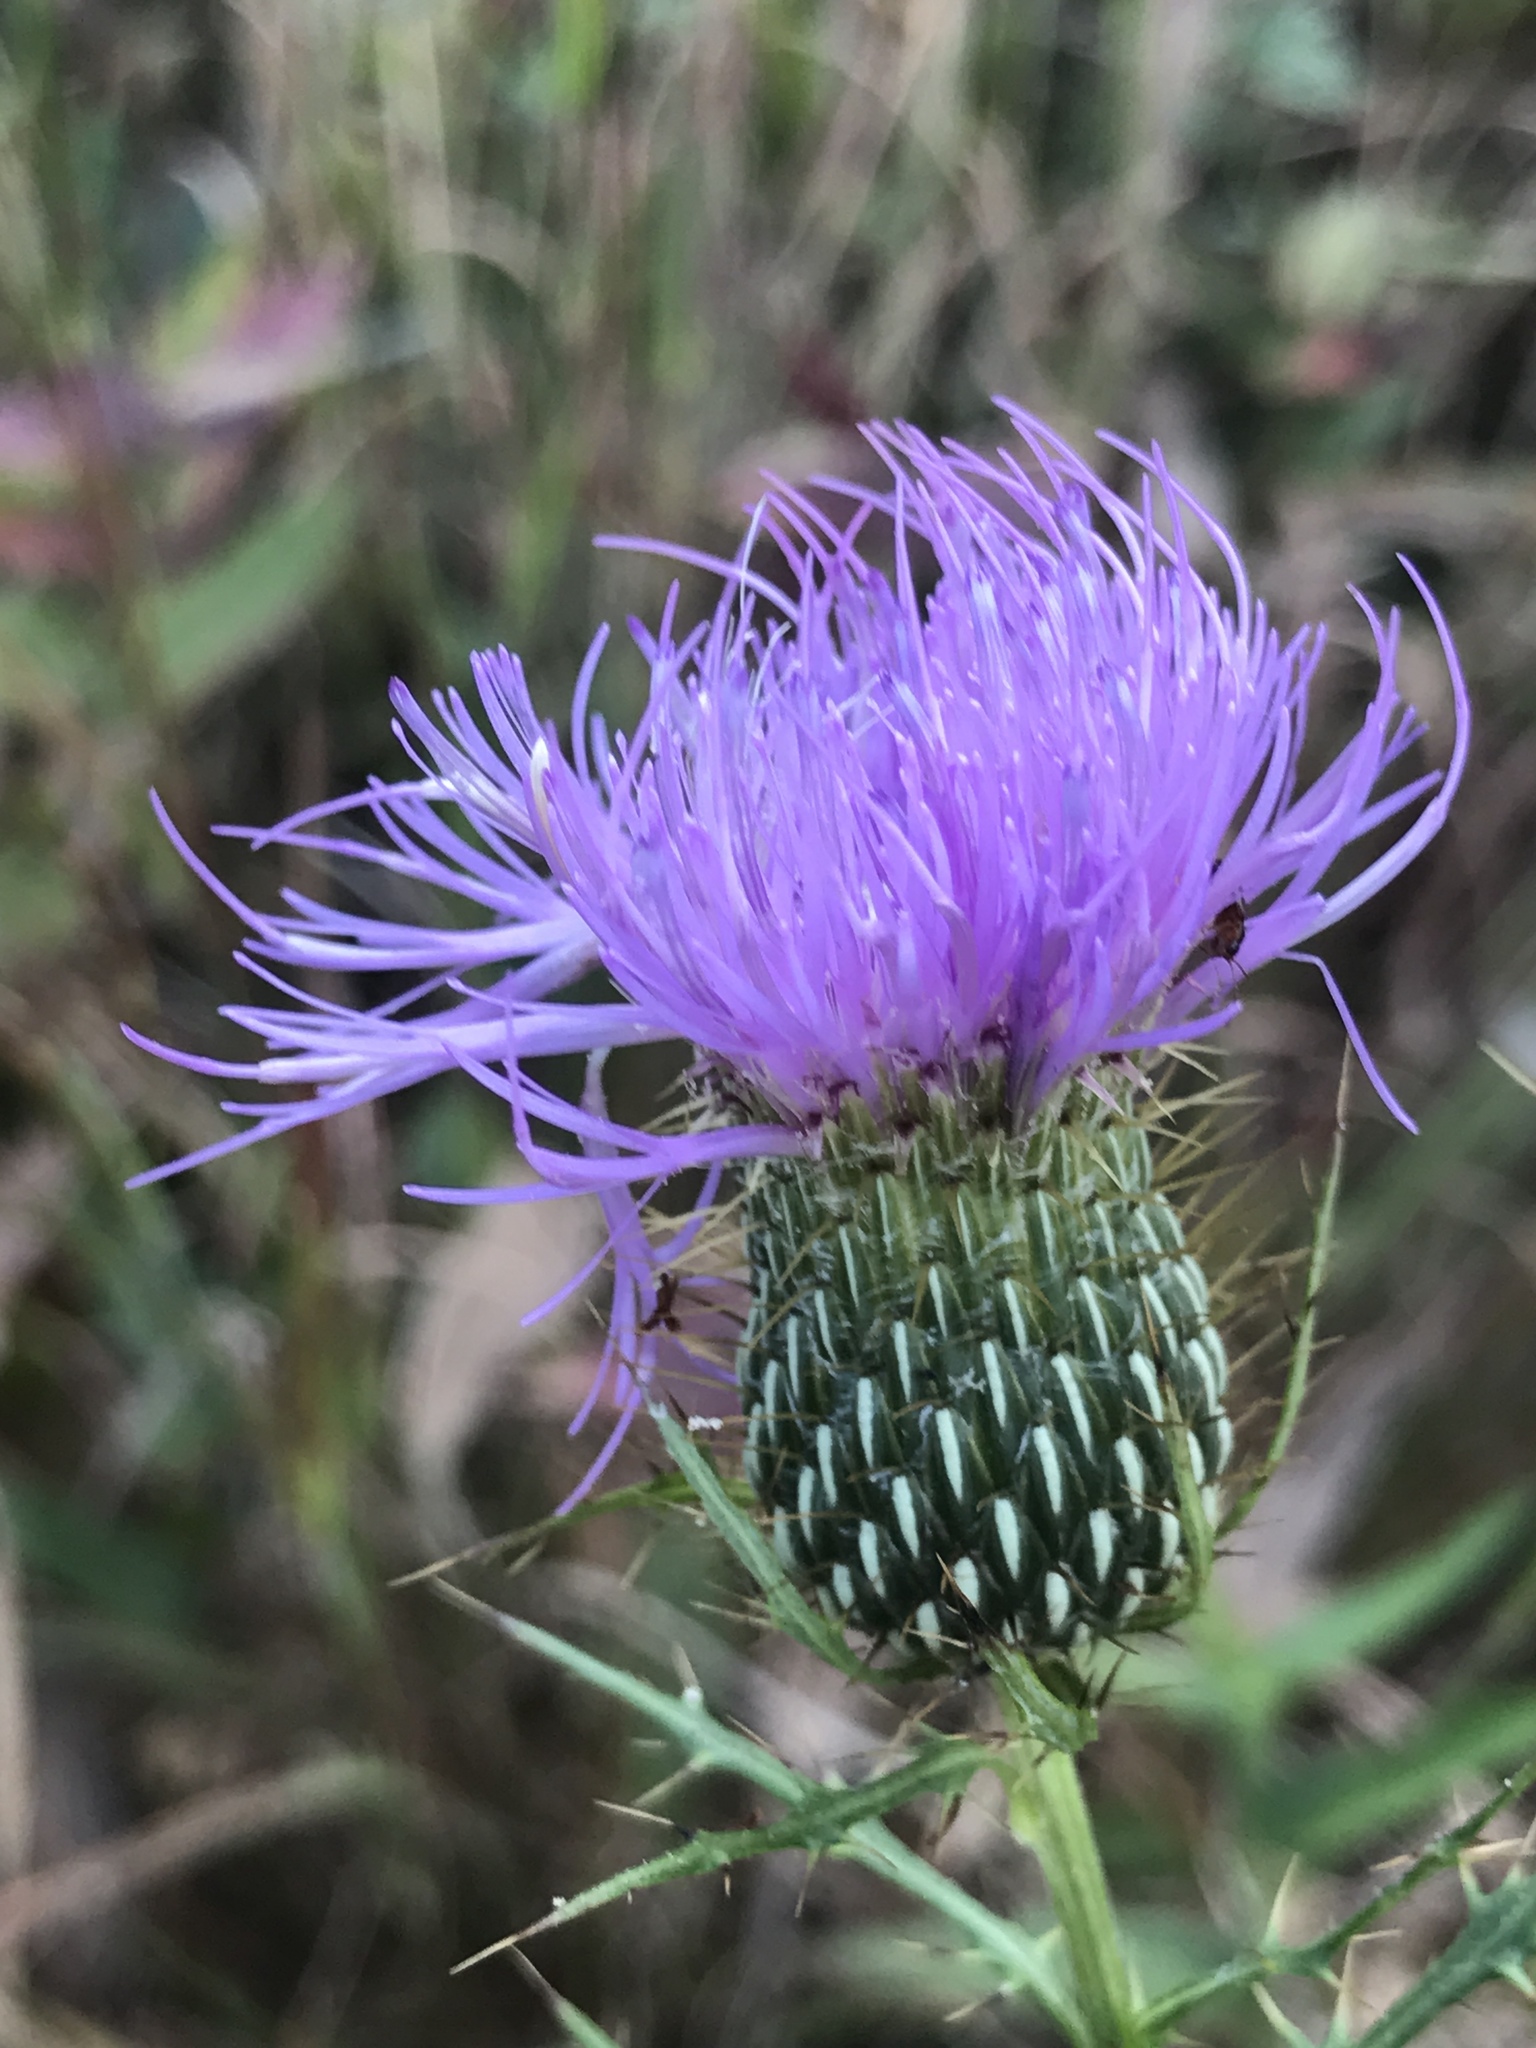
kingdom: Plantae
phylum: Tracheophyta
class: Magnoliopsida
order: Asterales
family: Asteraceae
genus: Cirsium
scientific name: Cirsium discolor
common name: Field thistle
